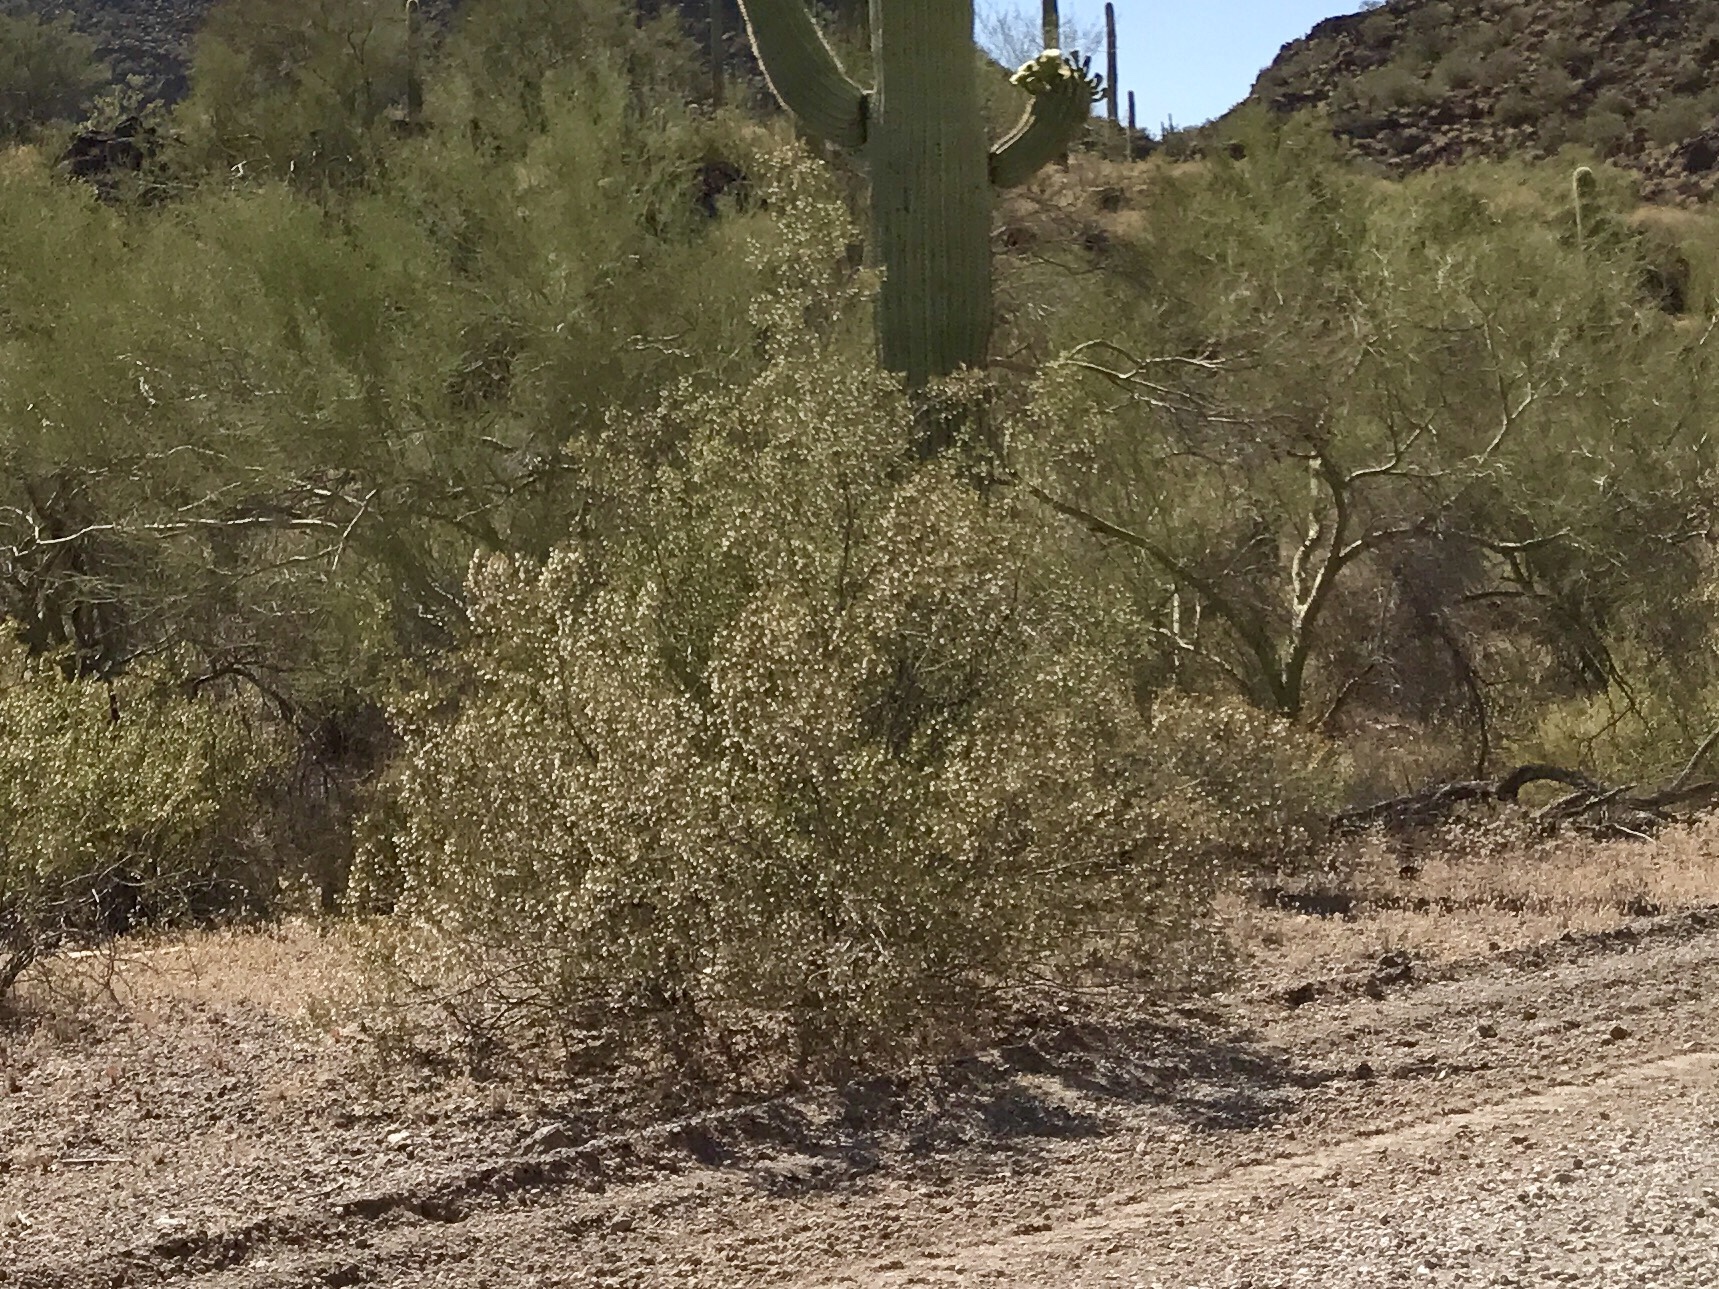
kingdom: Plantae
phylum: Tracheophyta
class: Magnoliopsida
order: Zygophyllales
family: Zygophyllaceae
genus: Larrea
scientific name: Larrea tridentata
